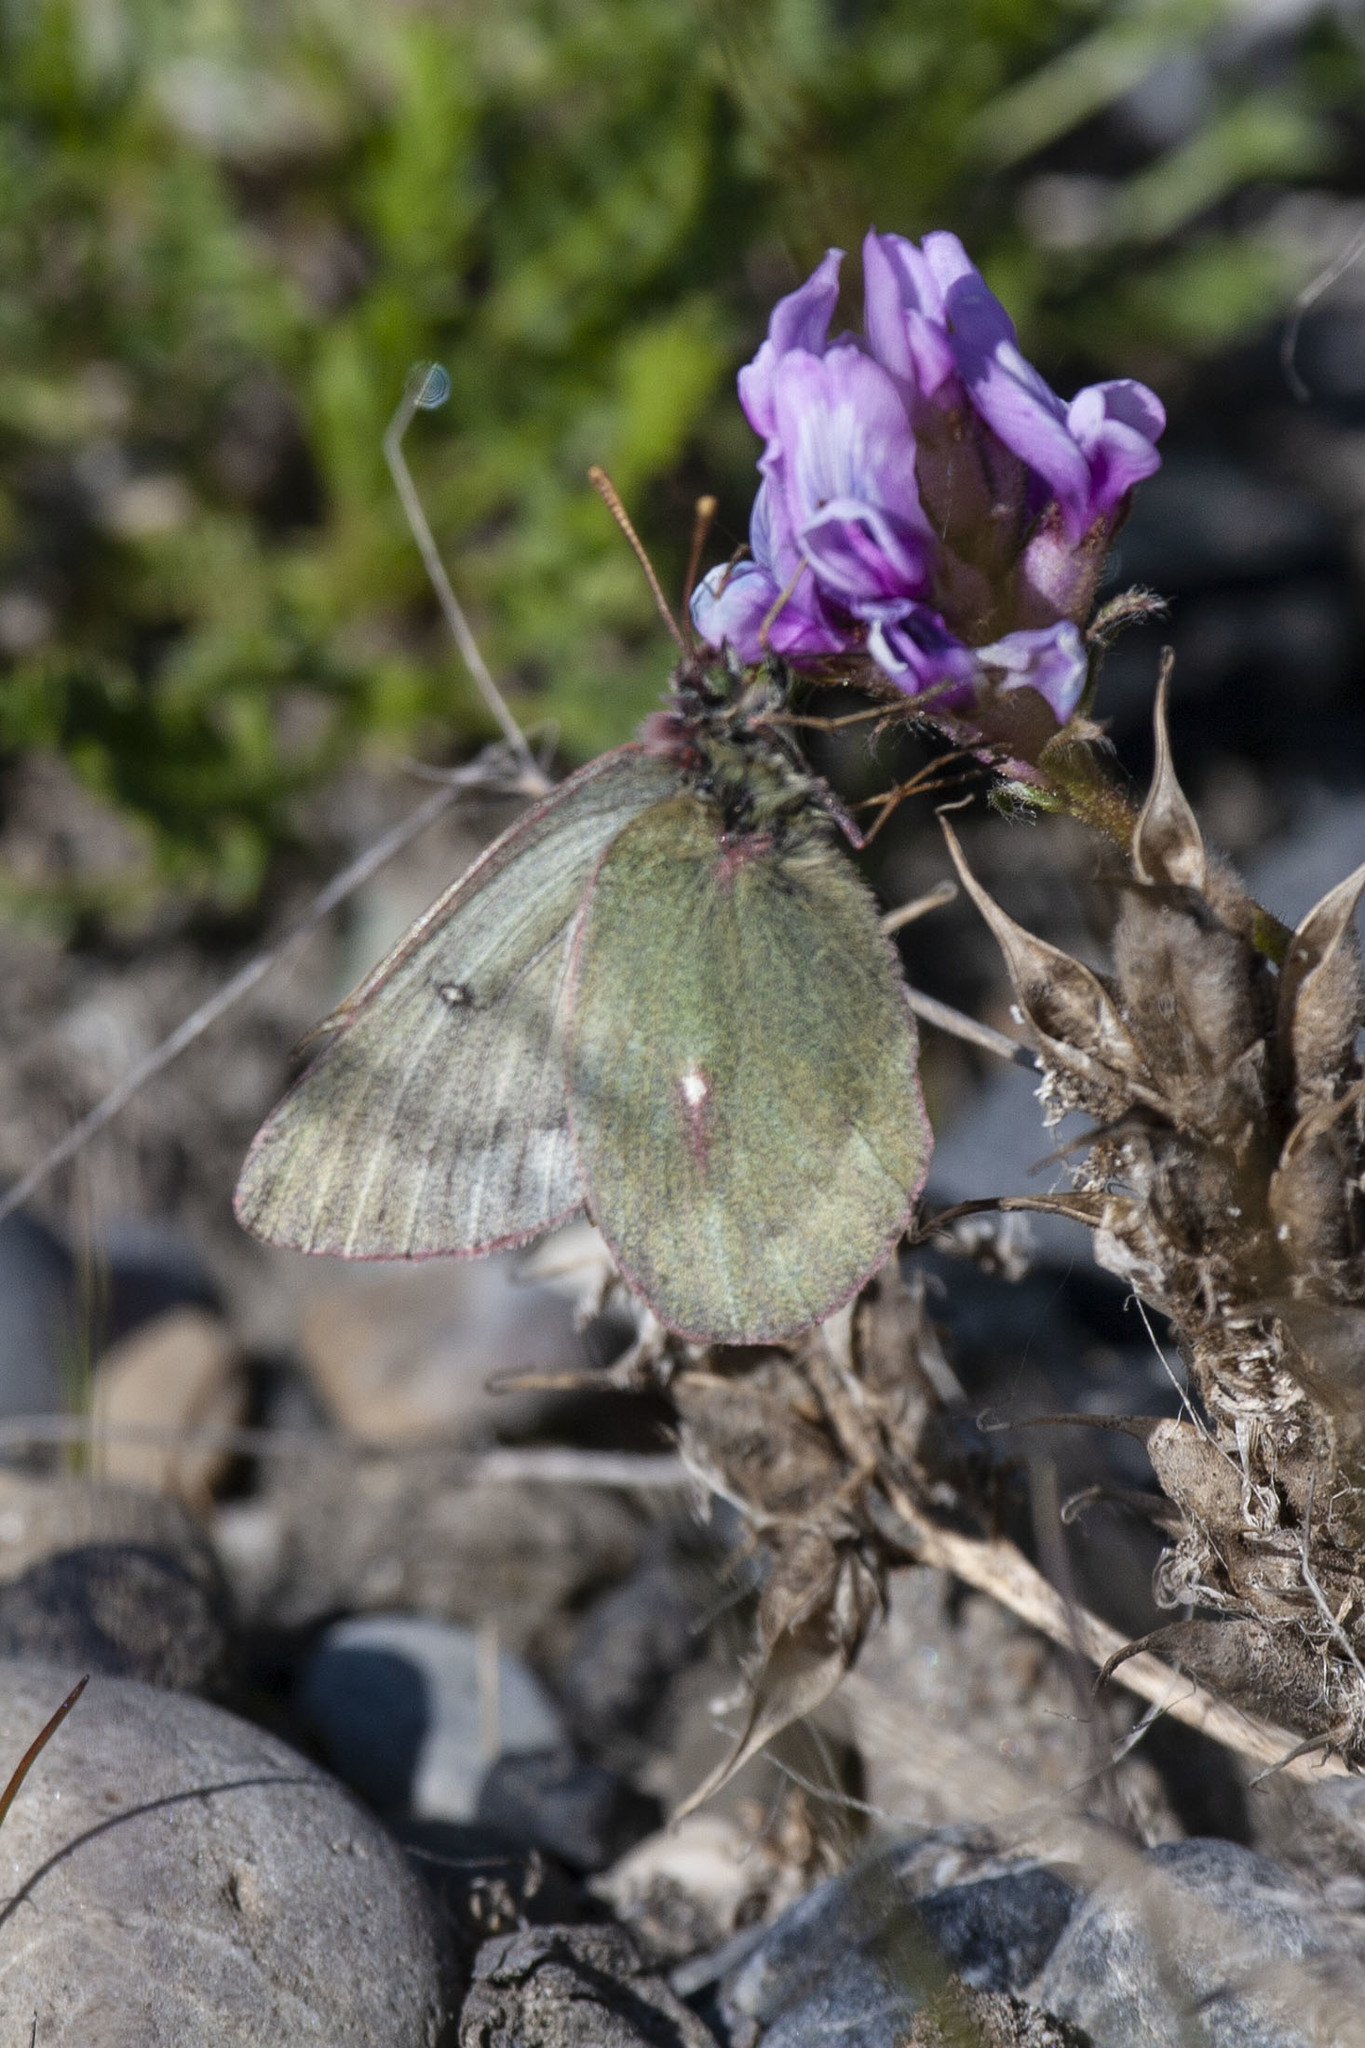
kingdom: Animalia
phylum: Arthropoda
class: Insecta
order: Lepidoptera
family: Pieridae
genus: Colias
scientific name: Colias nastes
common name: Labrador sulphur
